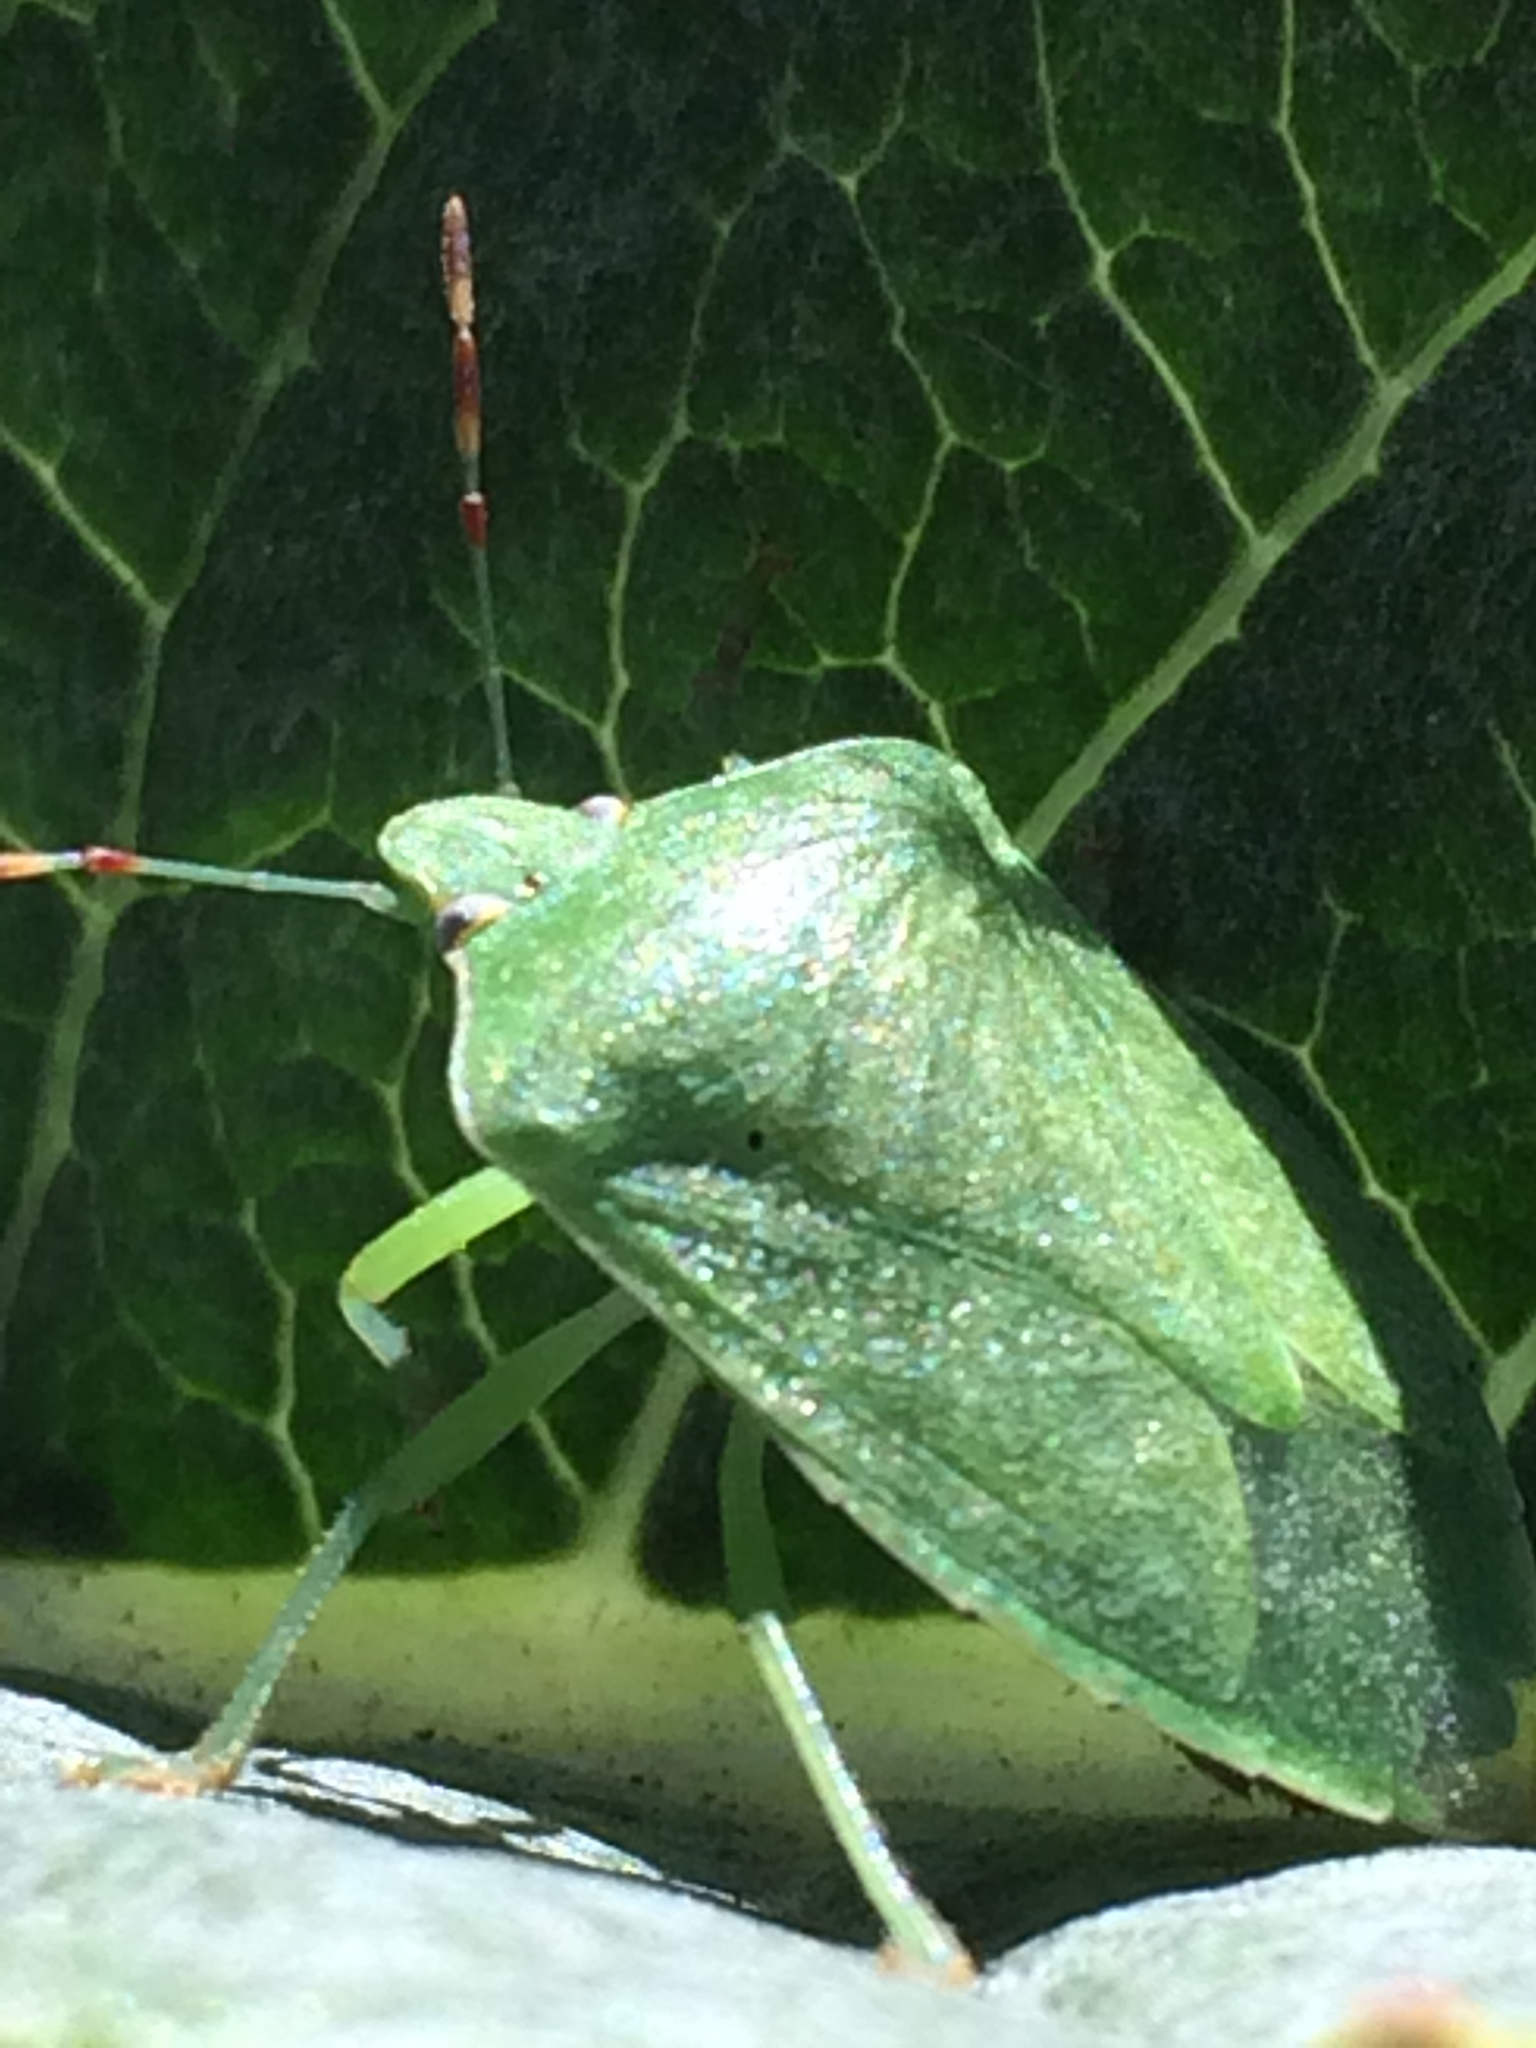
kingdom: Animalia
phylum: Arthropoda
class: Insecta
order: Hemiptera
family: Pentatomidae
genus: Nezara
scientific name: Nezara viridula
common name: Southern green stink bug
